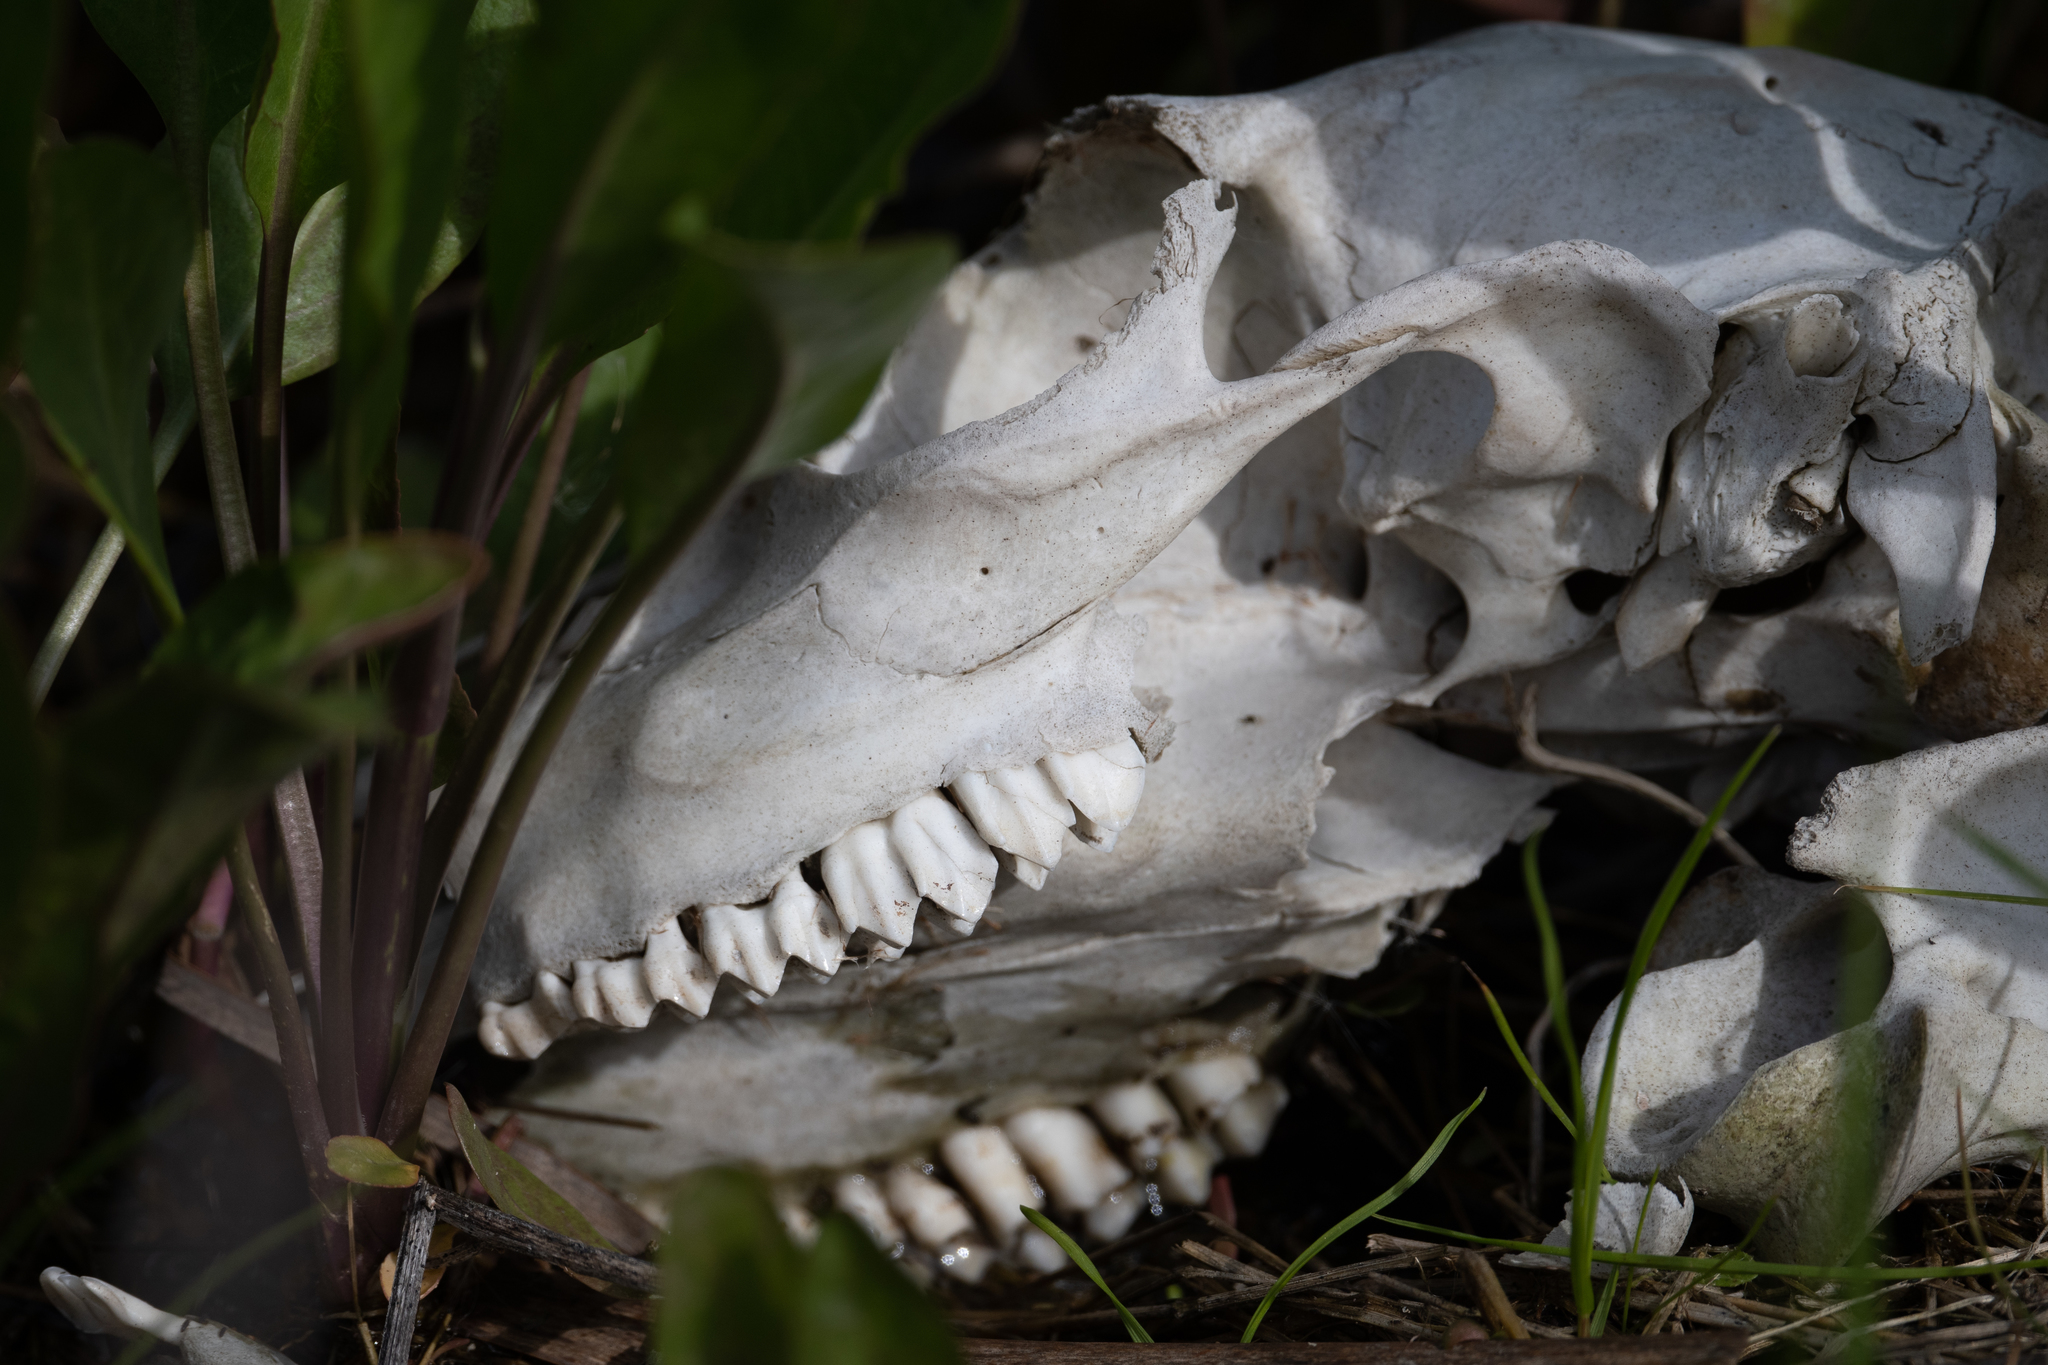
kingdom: Animalia
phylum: Chordata
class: Mammalia
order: Artiodactyla
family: Cervidae
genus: Odocoileus
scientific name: Odocoileus hemionus
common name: Mule deer
